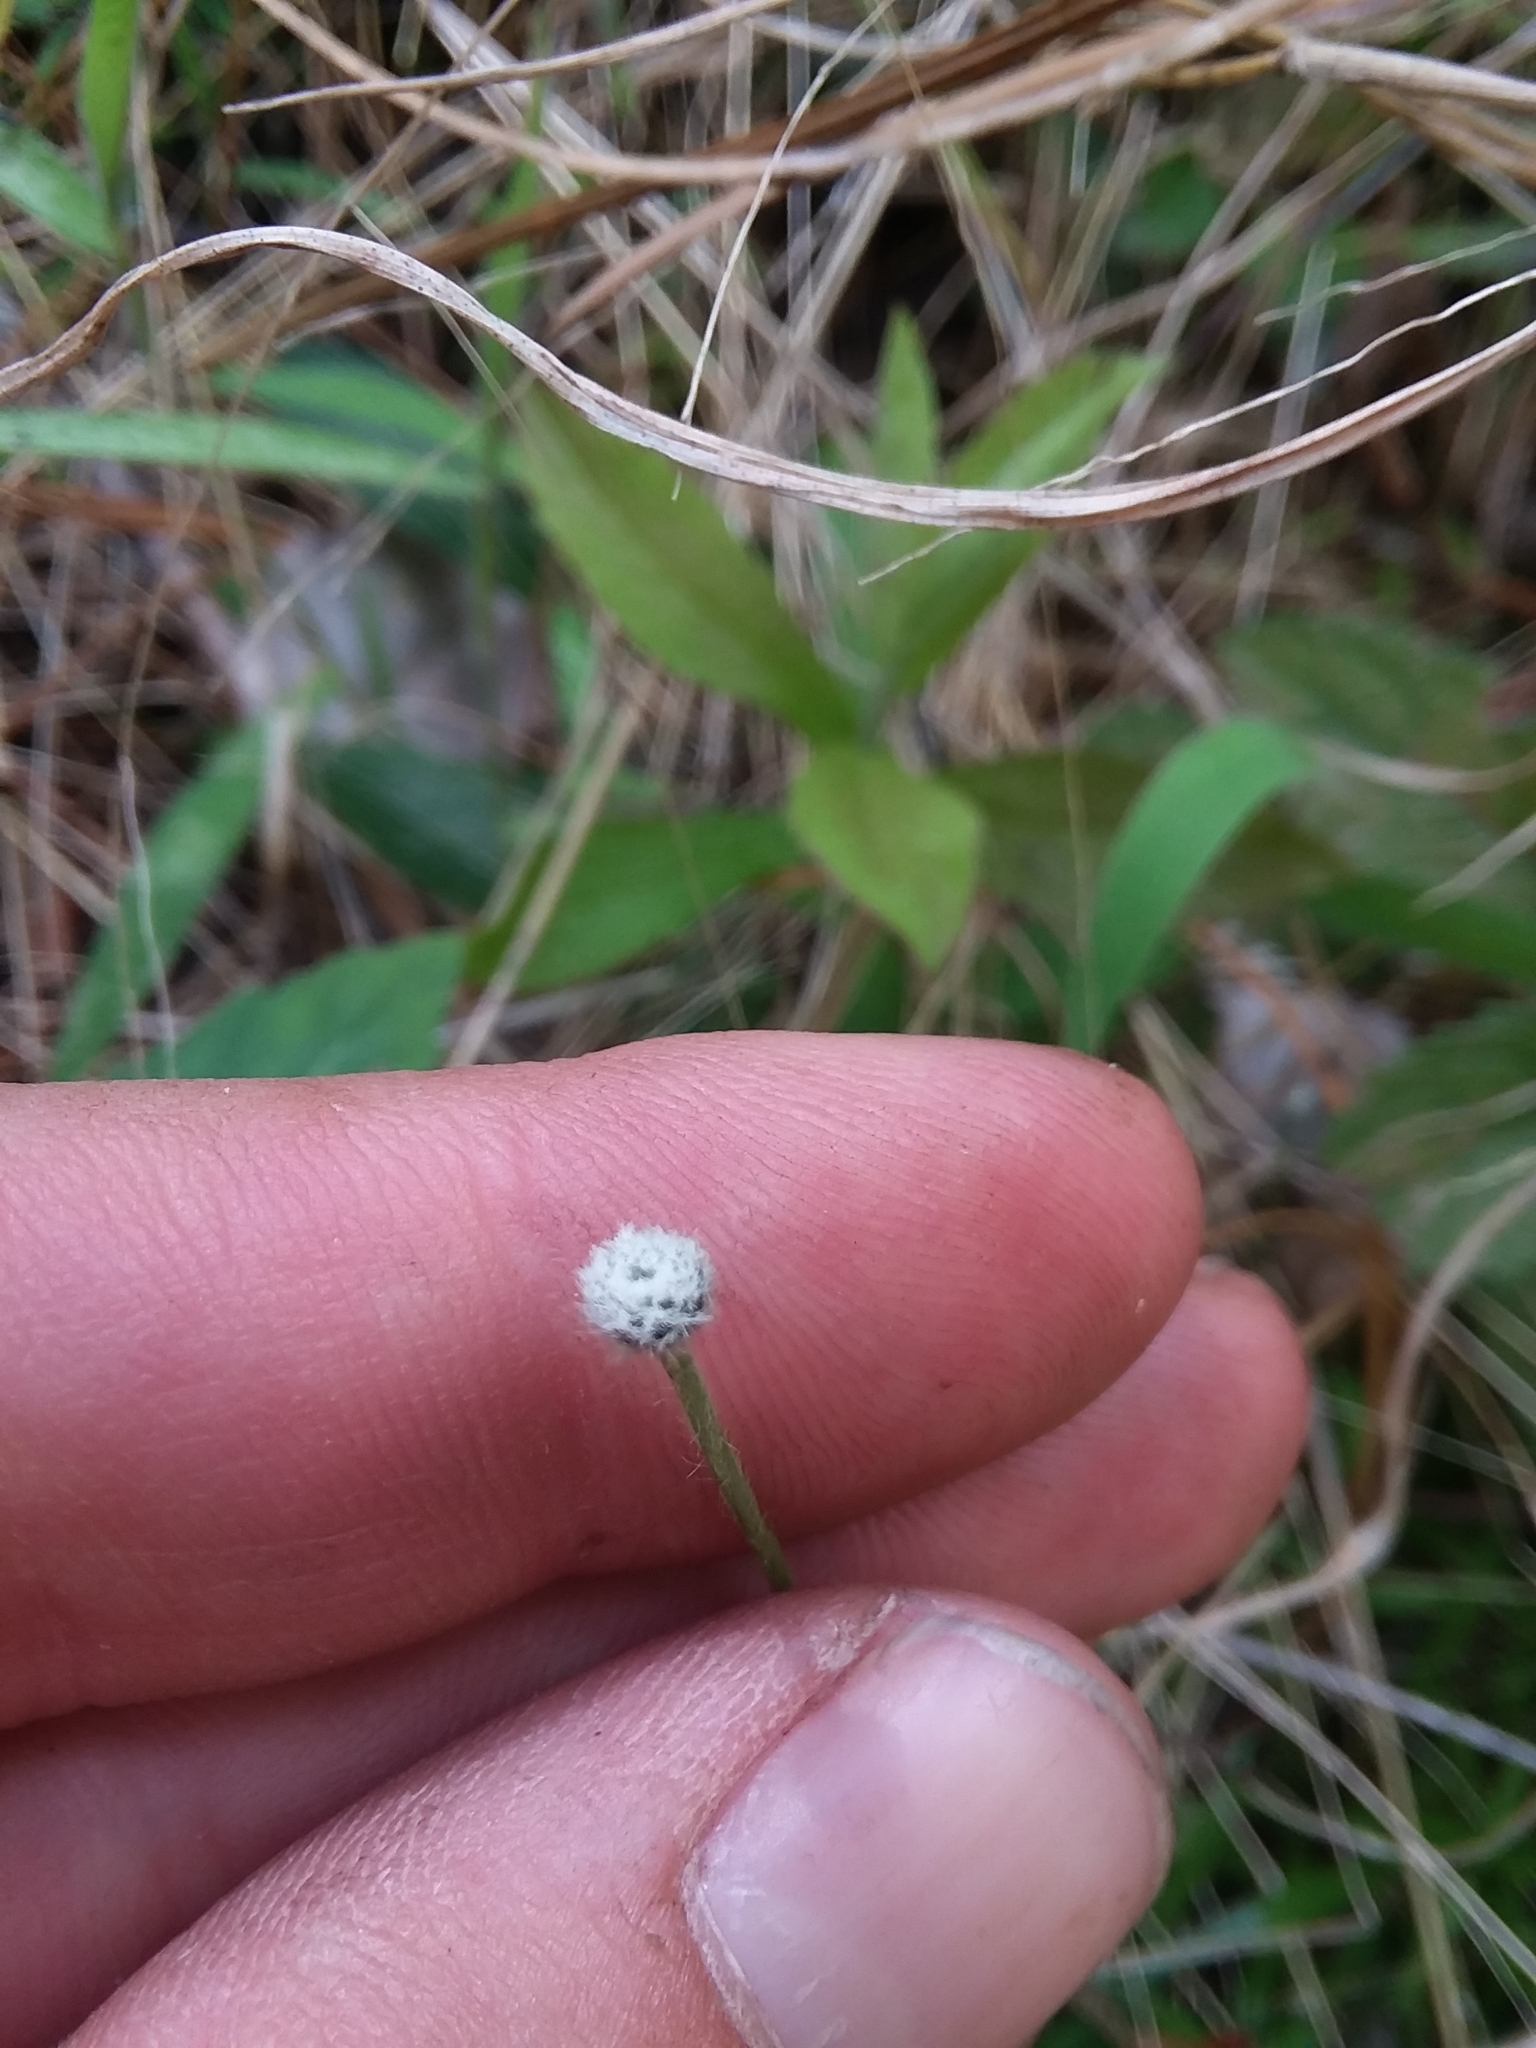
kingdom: Plantae
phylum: Tracheophyta
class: Liliopsida
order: Poales
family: Eriocaulaceae
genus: Paepalanthus
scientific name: Paepalanthus anceps
